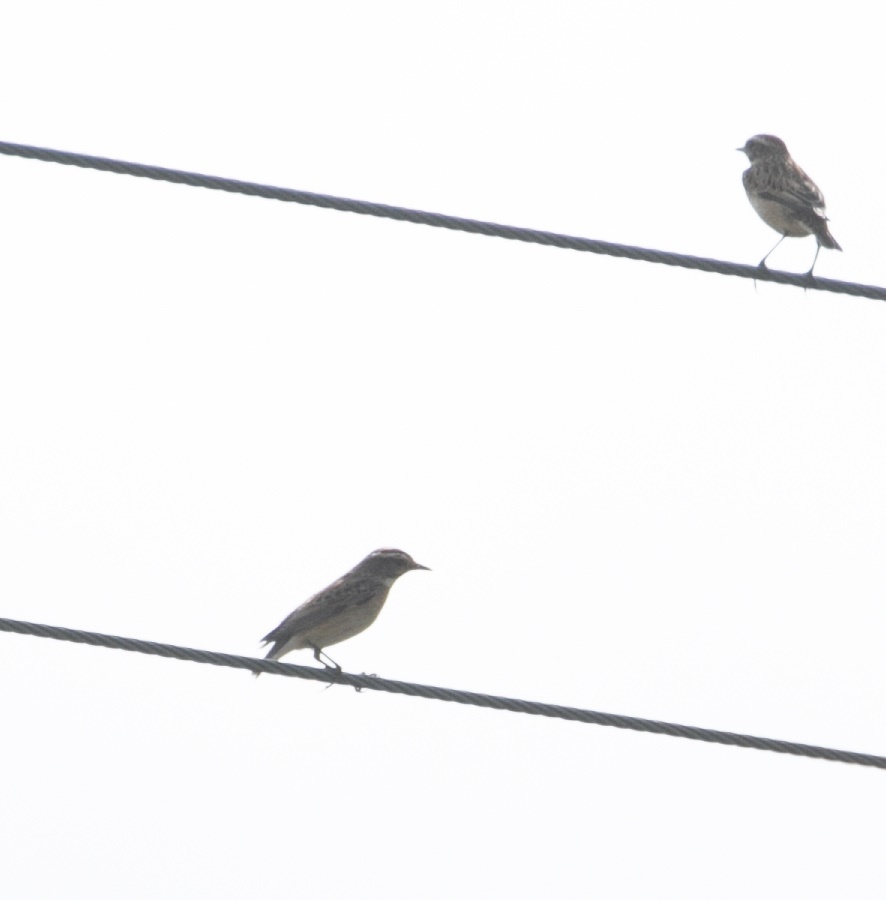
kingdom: Animalia
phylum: Chordata
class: Aves
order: Passeriformes
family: Muscicapidae
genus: Saxicola
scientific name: Saxicola rubetra
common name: Whinchat
